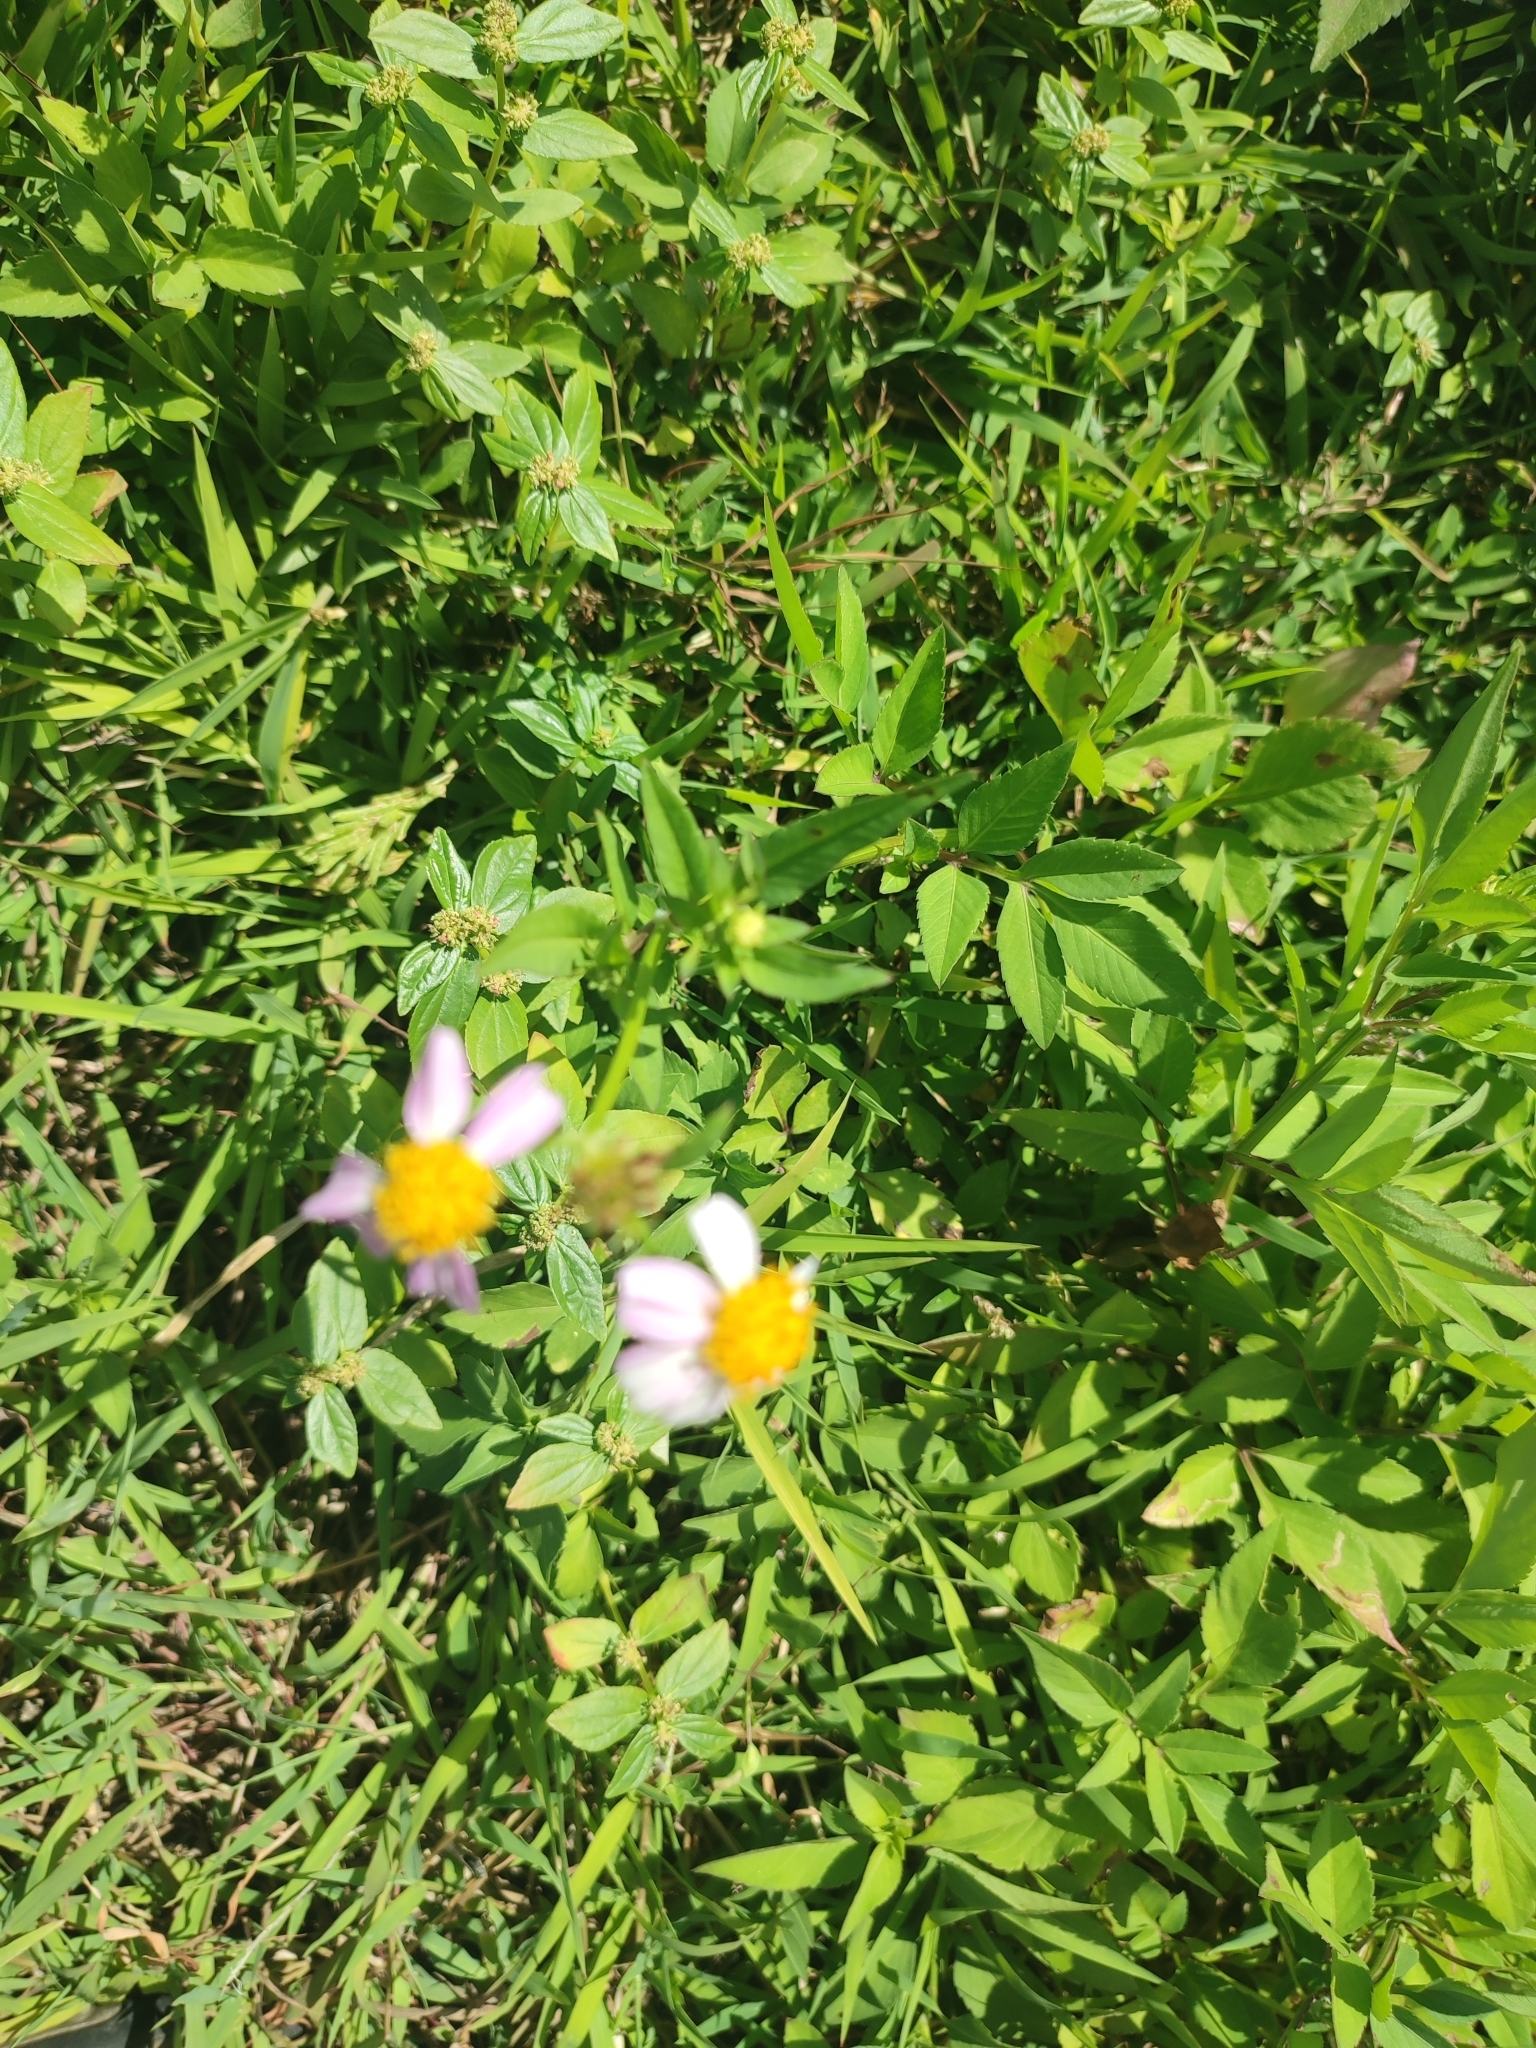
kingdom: Plantae
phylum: Tracheophyta
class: Magnoliopsida
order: Asterales
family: Asteraceae
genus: Bidens
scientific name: Bidens alba
